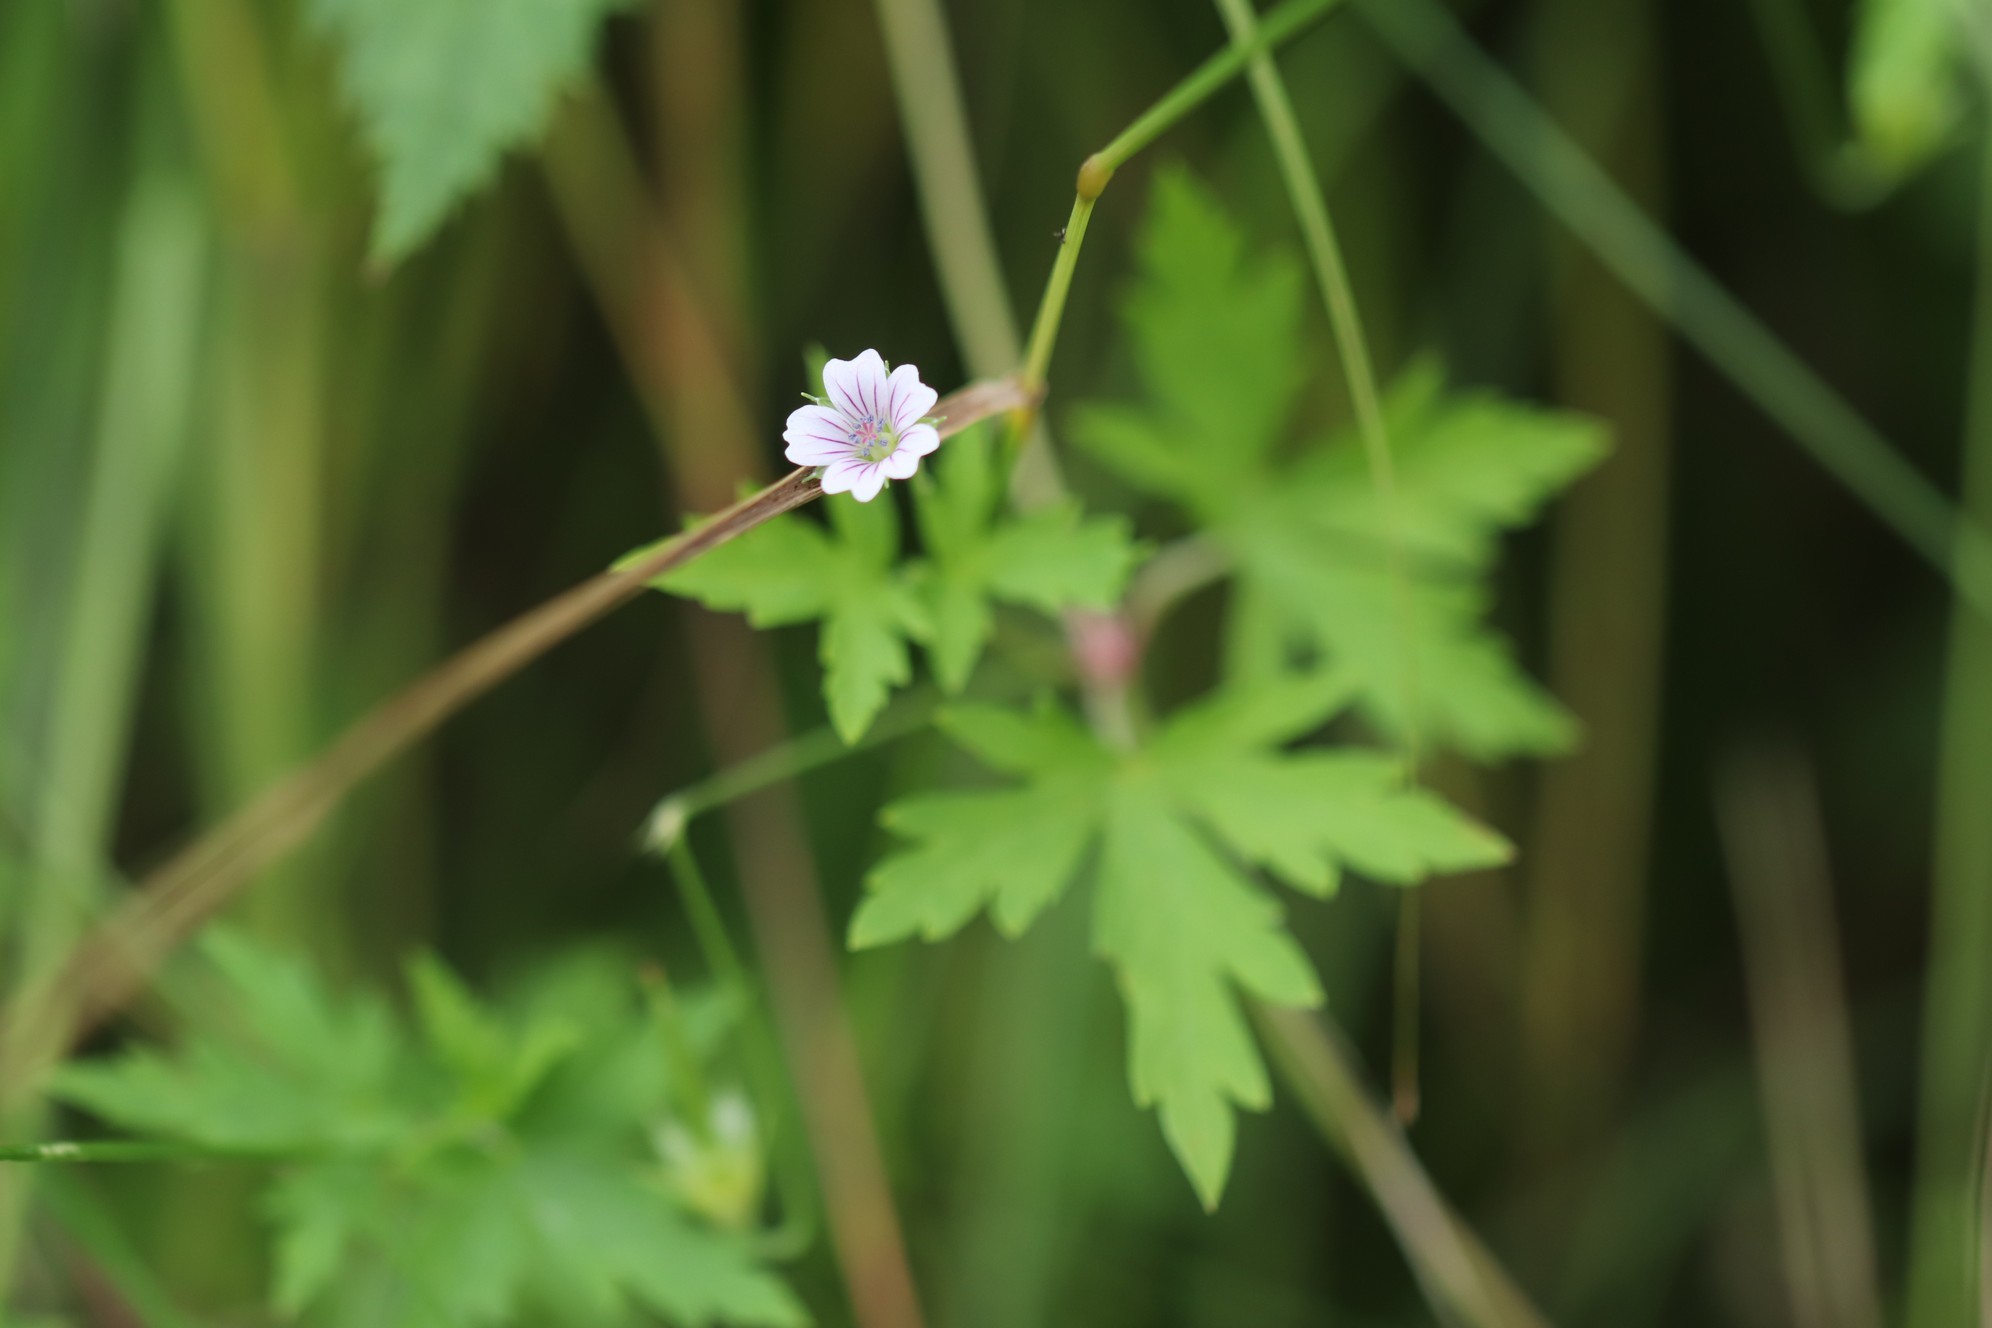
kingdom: Plantae
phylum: Tracheophyta
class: Magnoliopsida
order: Geraniales
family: Geraniaceae
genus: Geranium
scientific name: Geranium sibiricum
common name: Siberian crane's-bill
